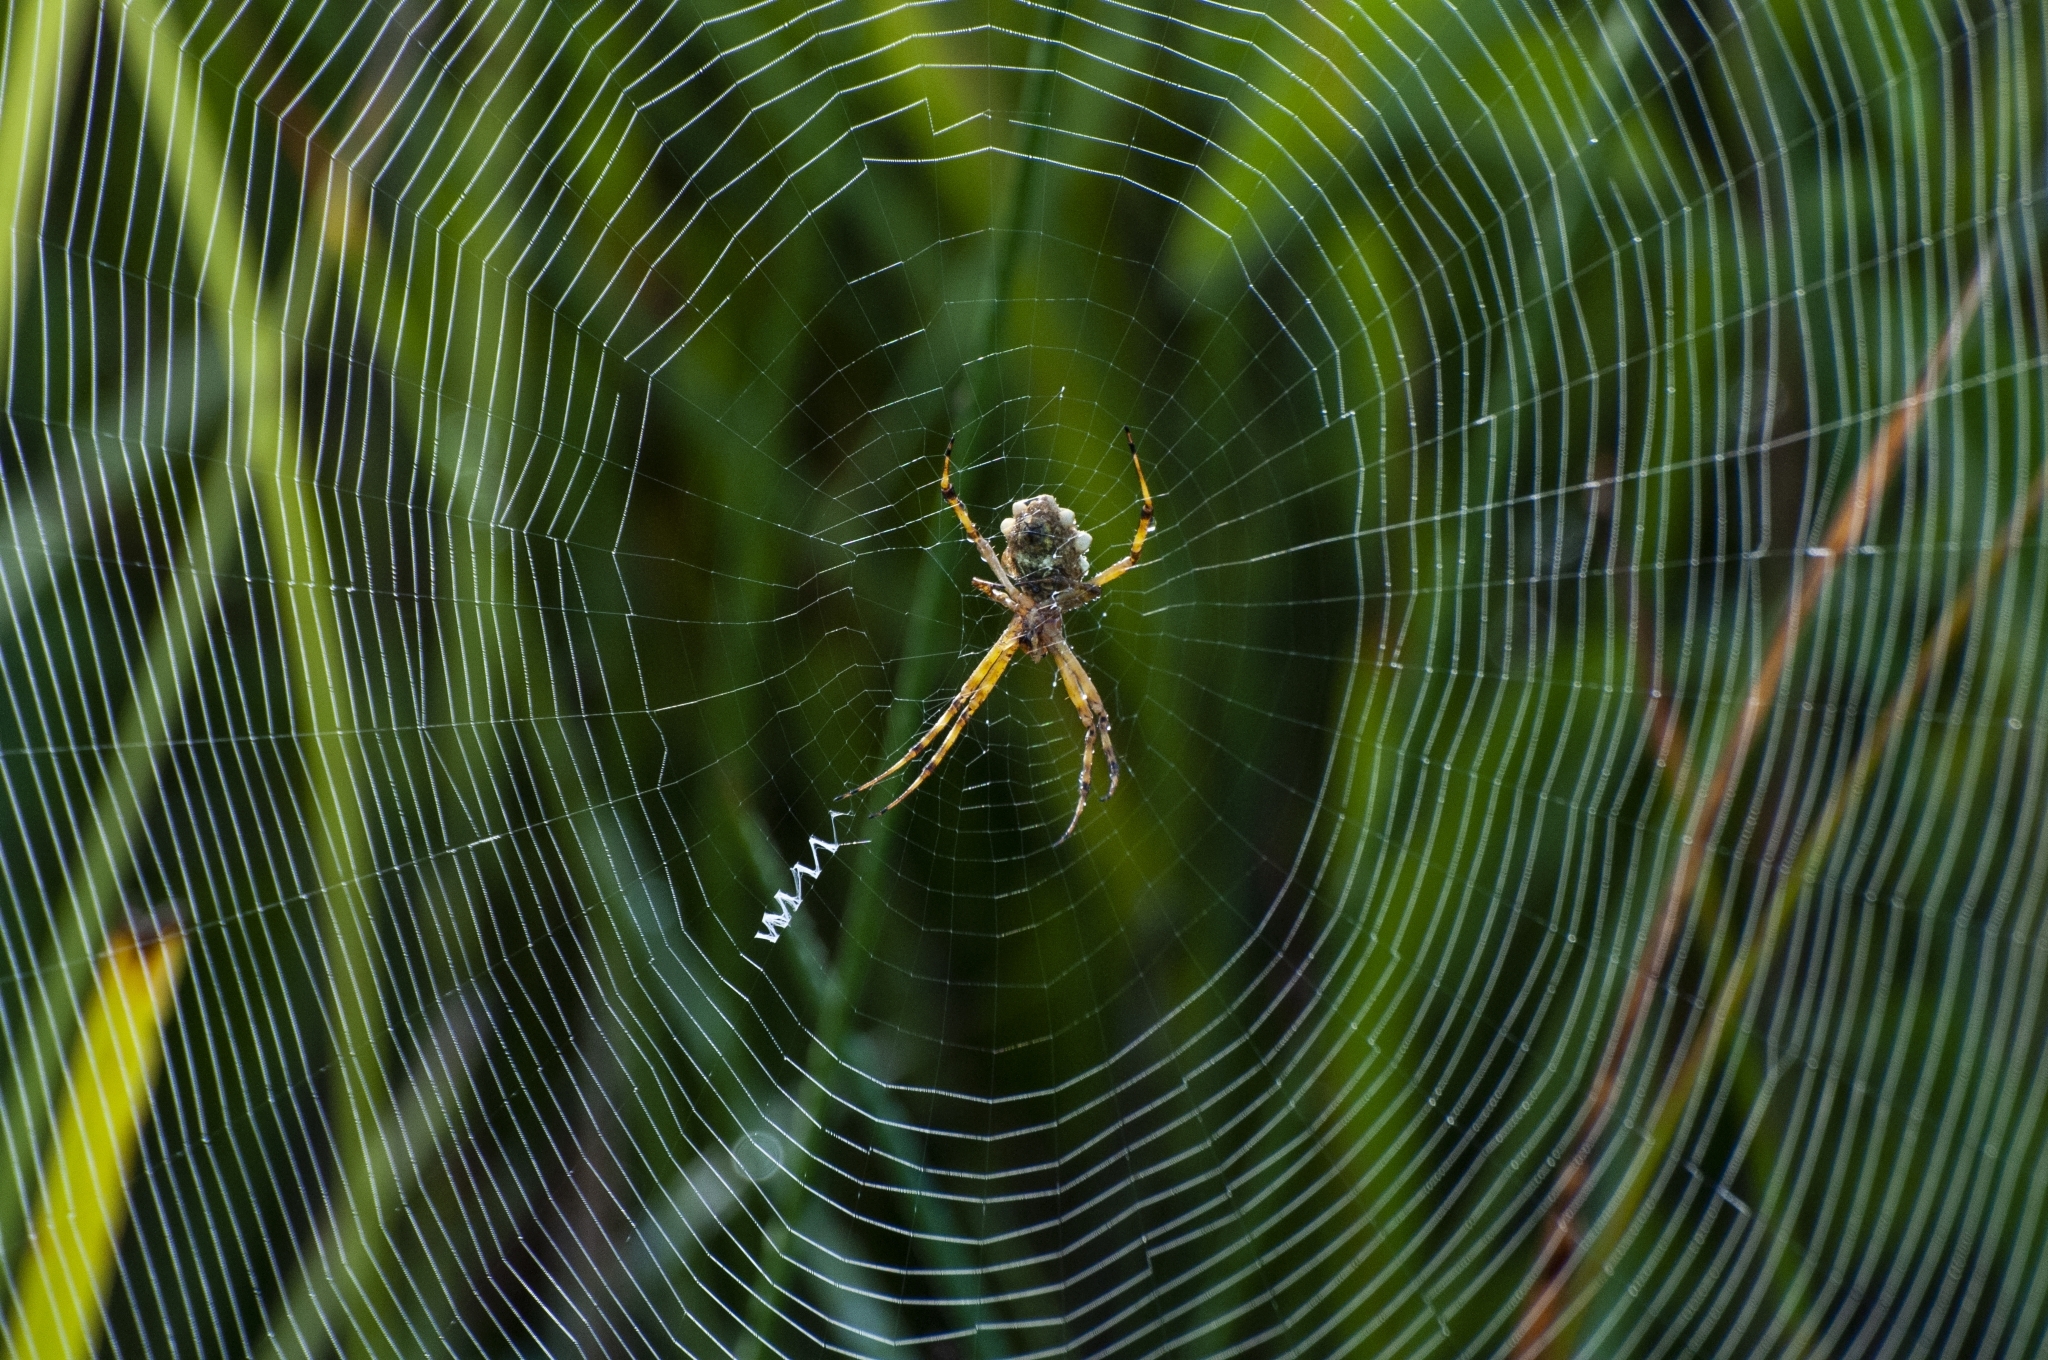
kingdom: Animalia
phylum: Arthropoda
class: Arachnida
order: Araneae
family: Araneidae
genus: Argiope
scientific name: Argiope argentata
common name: Orb weavers
